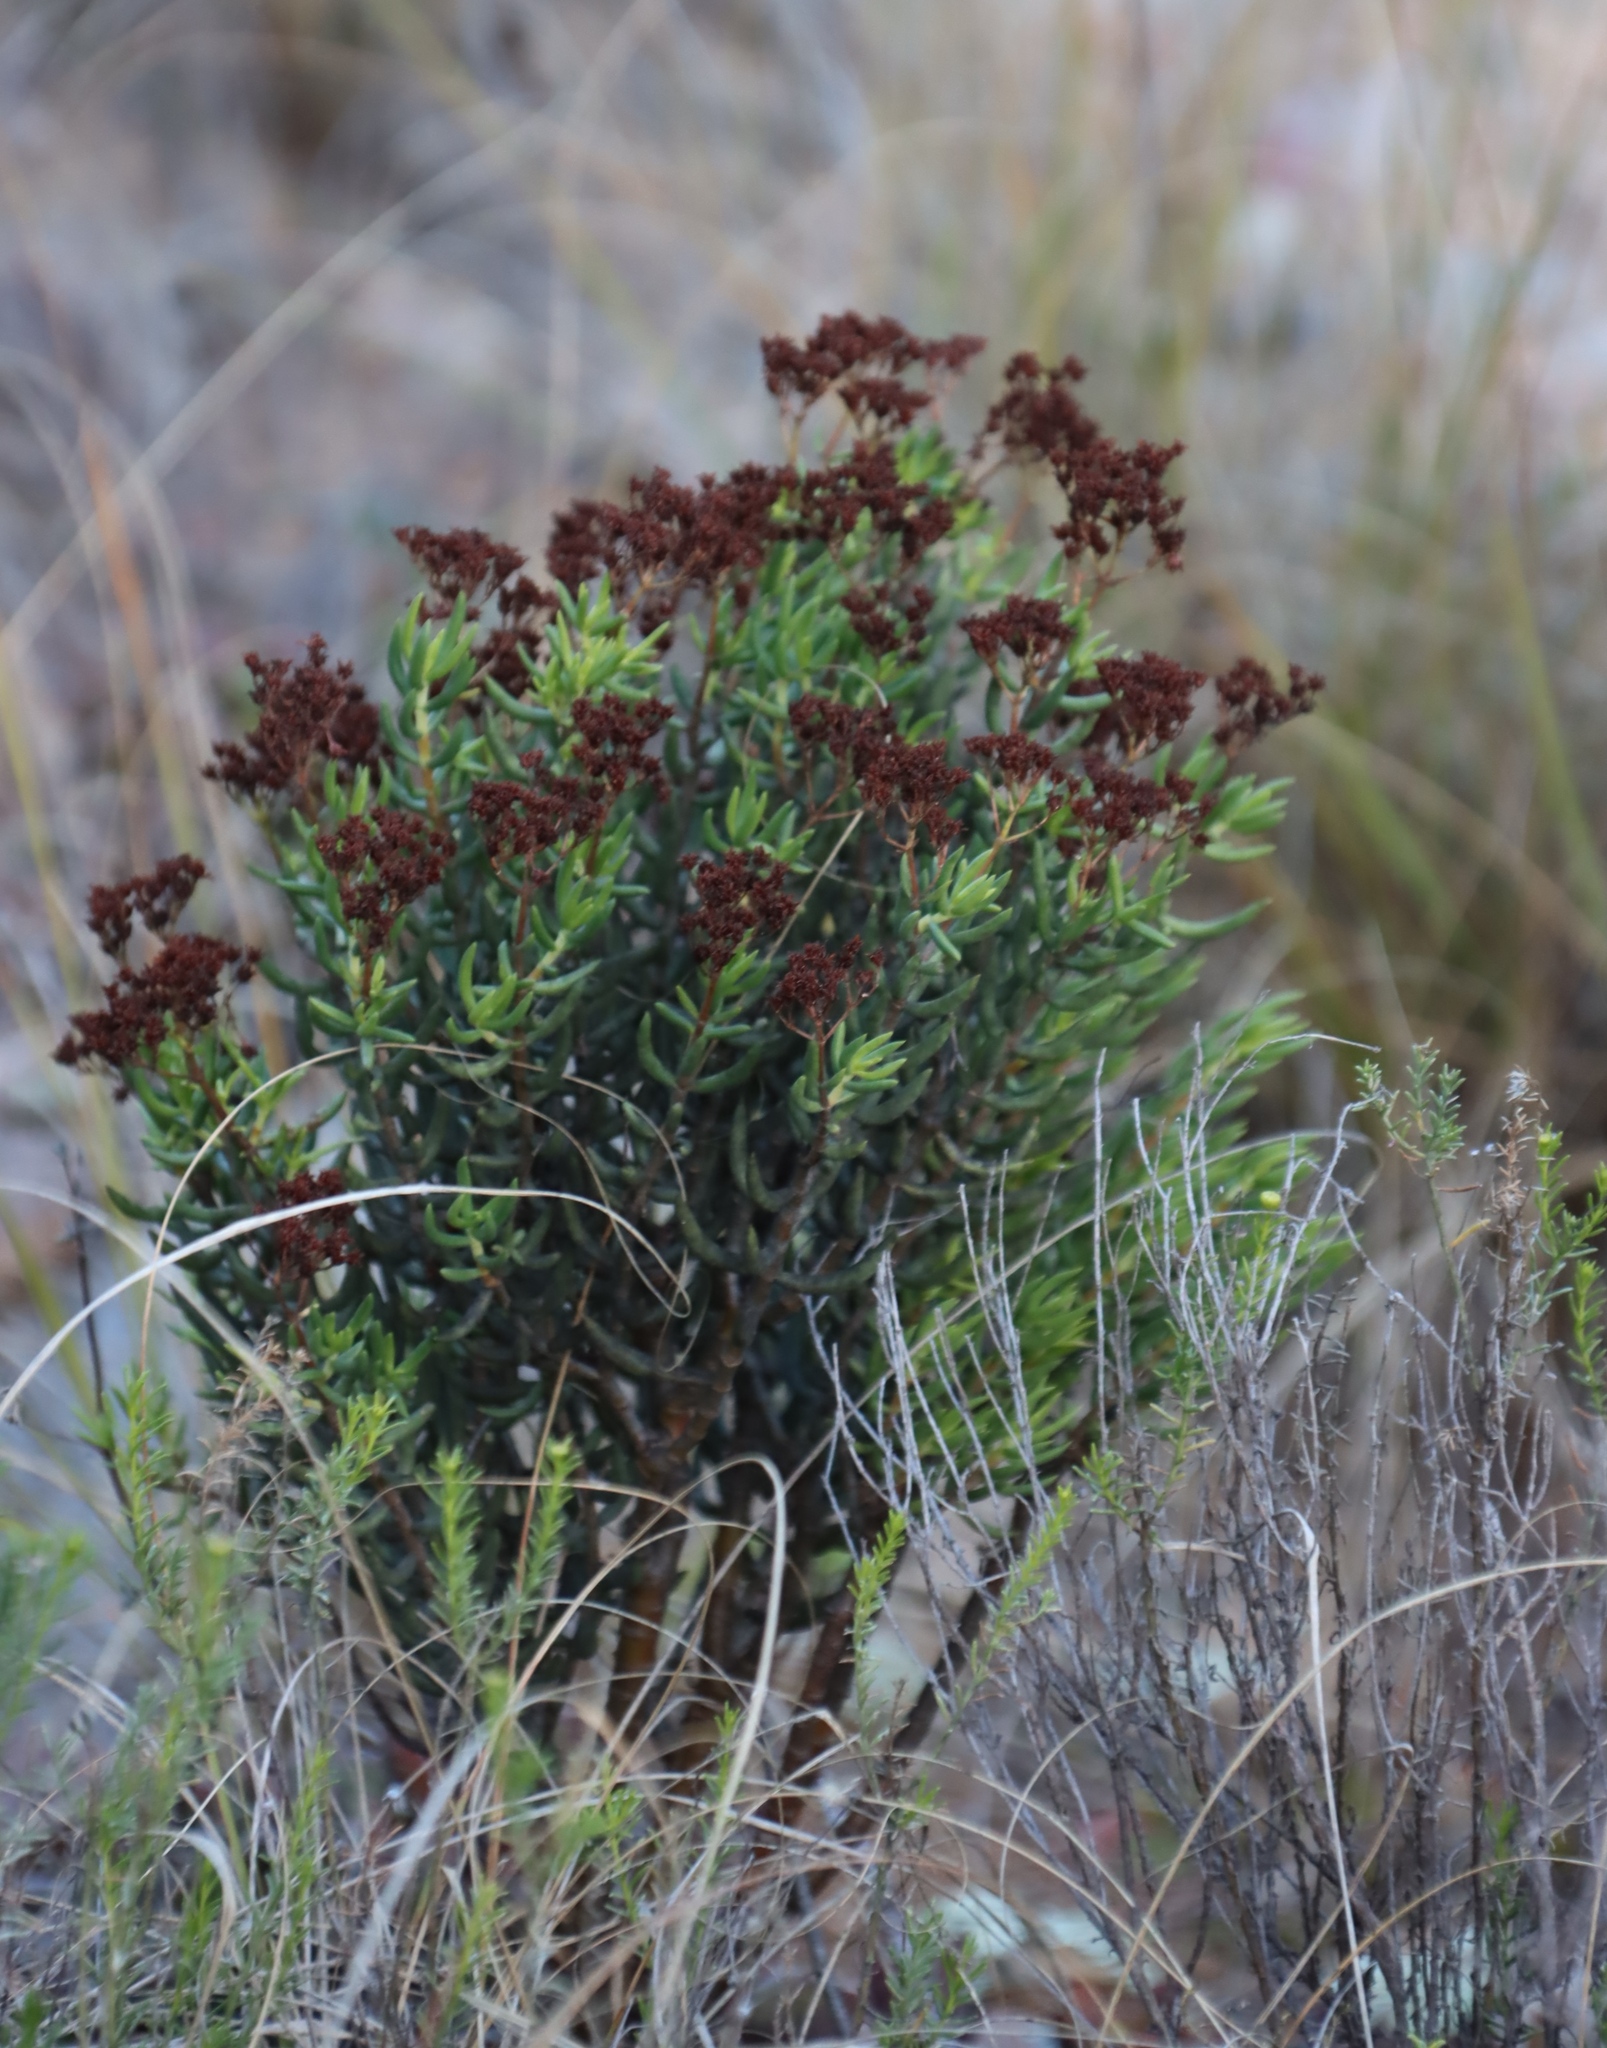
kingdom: Plantae
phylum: Tracheophyta
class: Magnoliopsida
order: Saxifragales
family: Crassulaceae
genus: Crassula
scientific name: Crassula tetragona
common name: Pygmyweed
